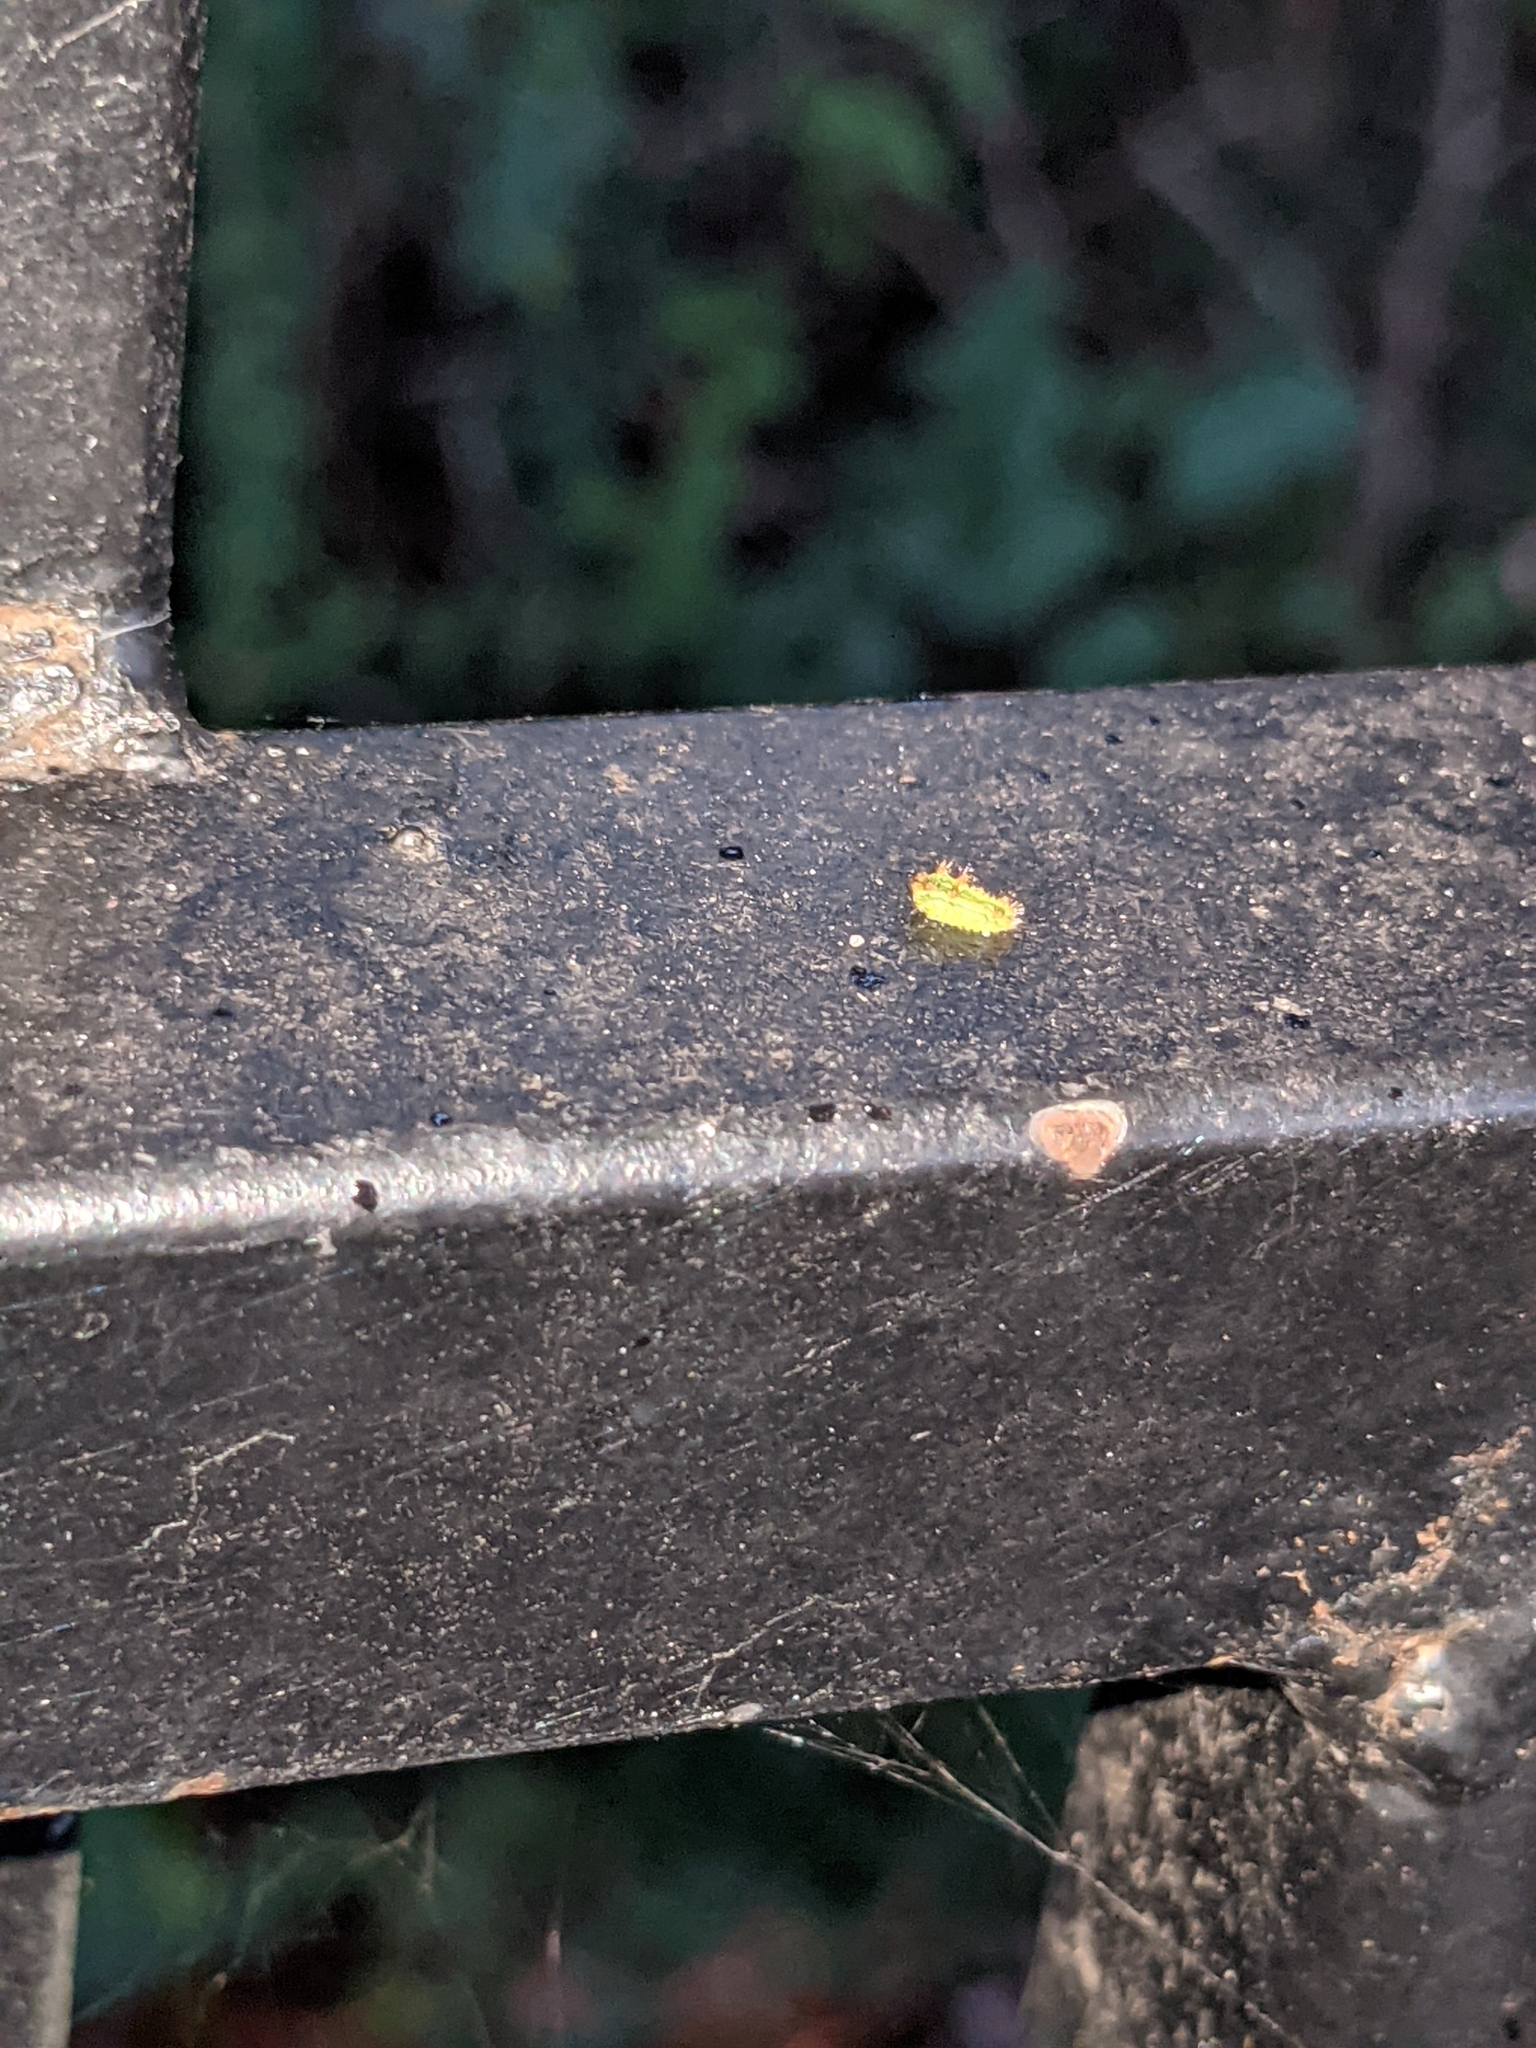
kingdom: Animalia
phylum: Arthropoda
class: Insecta
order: Lepidoptera
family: Limacodidae
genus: Euclea
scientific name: Euclea incisa
